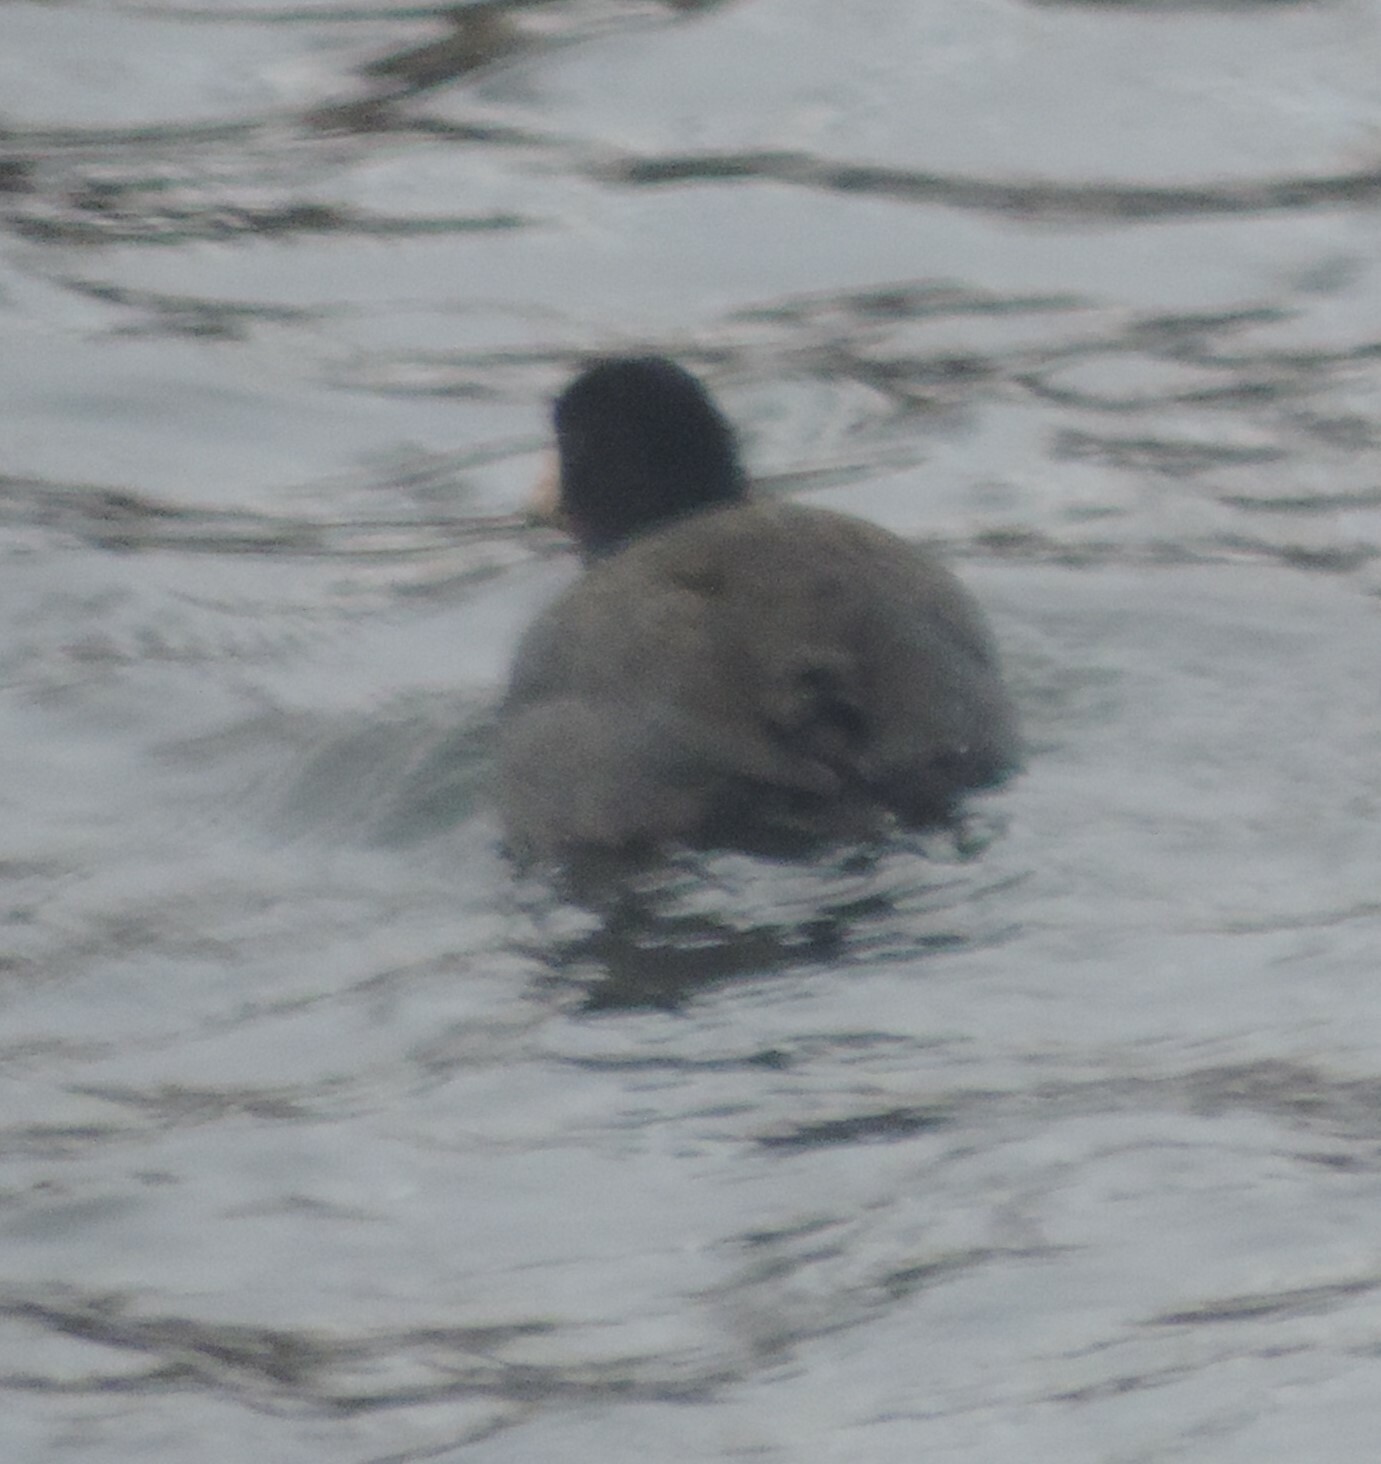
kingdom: Animalia
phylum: Chordata
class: Aves
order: Gruiformes
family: Rallidae
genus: Fulica
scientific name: Fulica americana
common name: American coot
